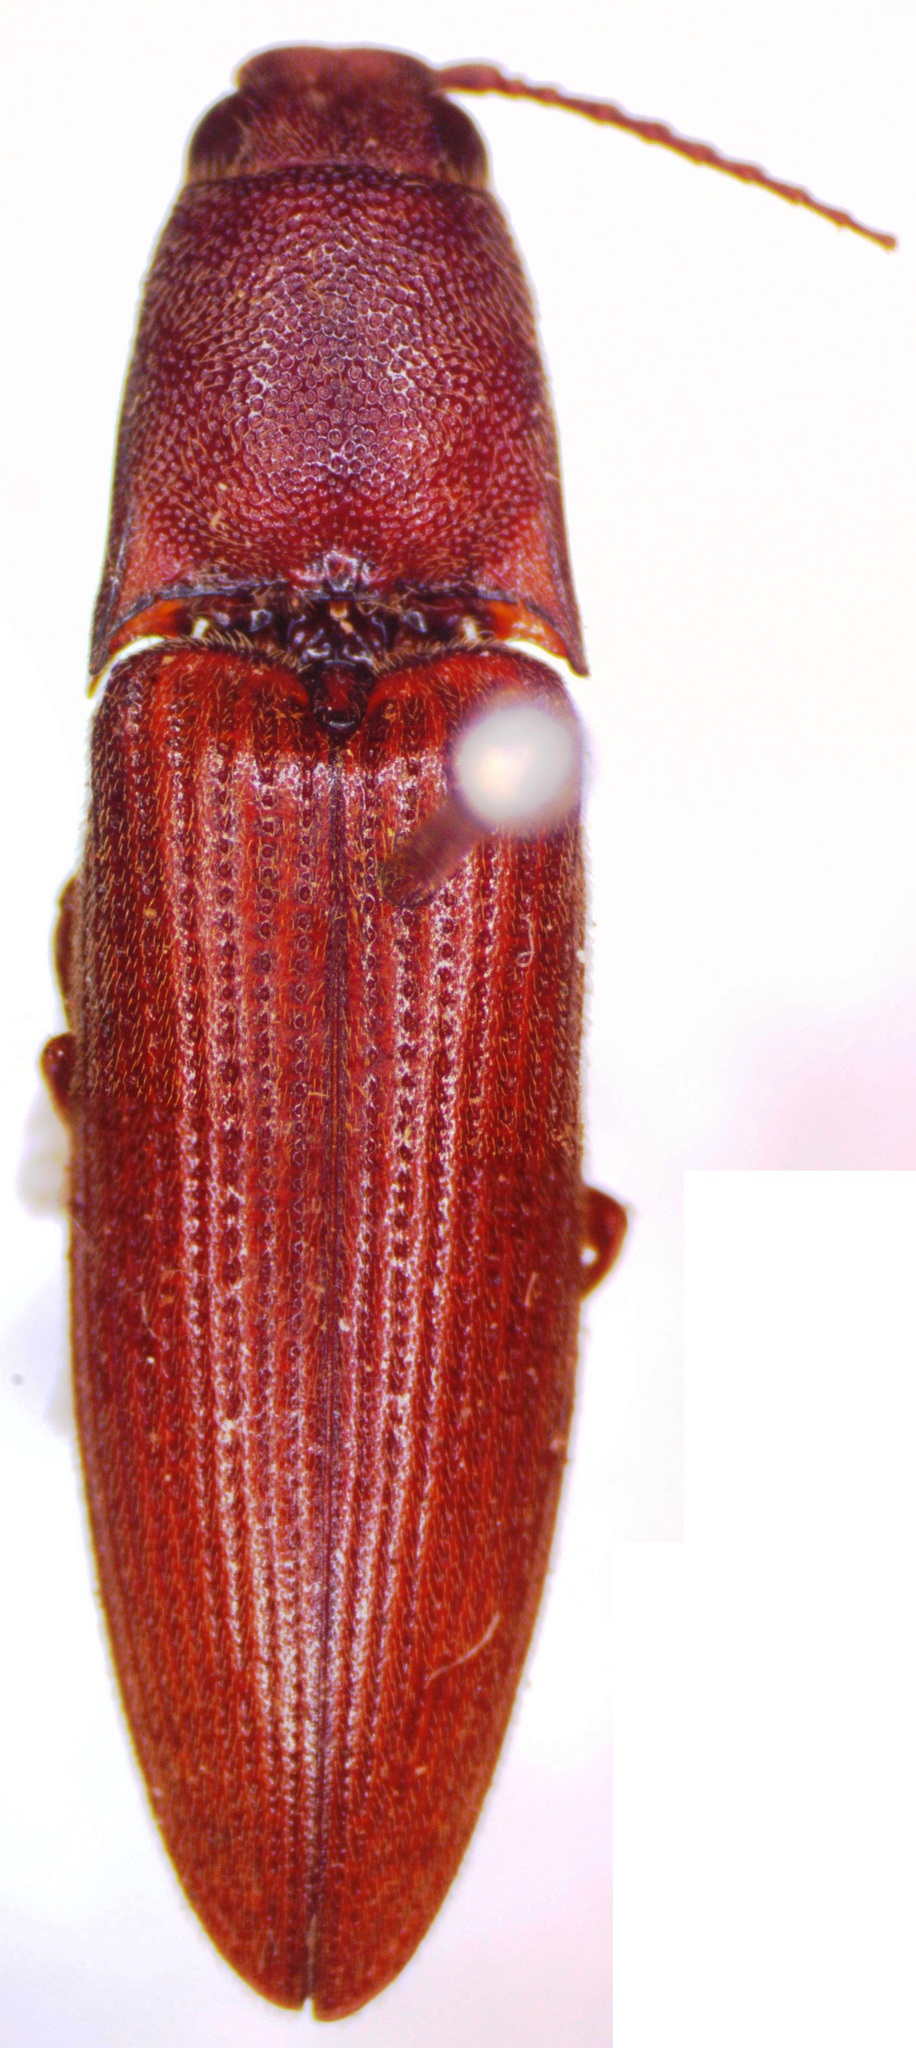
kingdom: Animalia
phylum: Arthropoda
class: Insecta
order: Coleoptera
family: Elateridae
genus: Propsephus
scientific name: Propsephus
